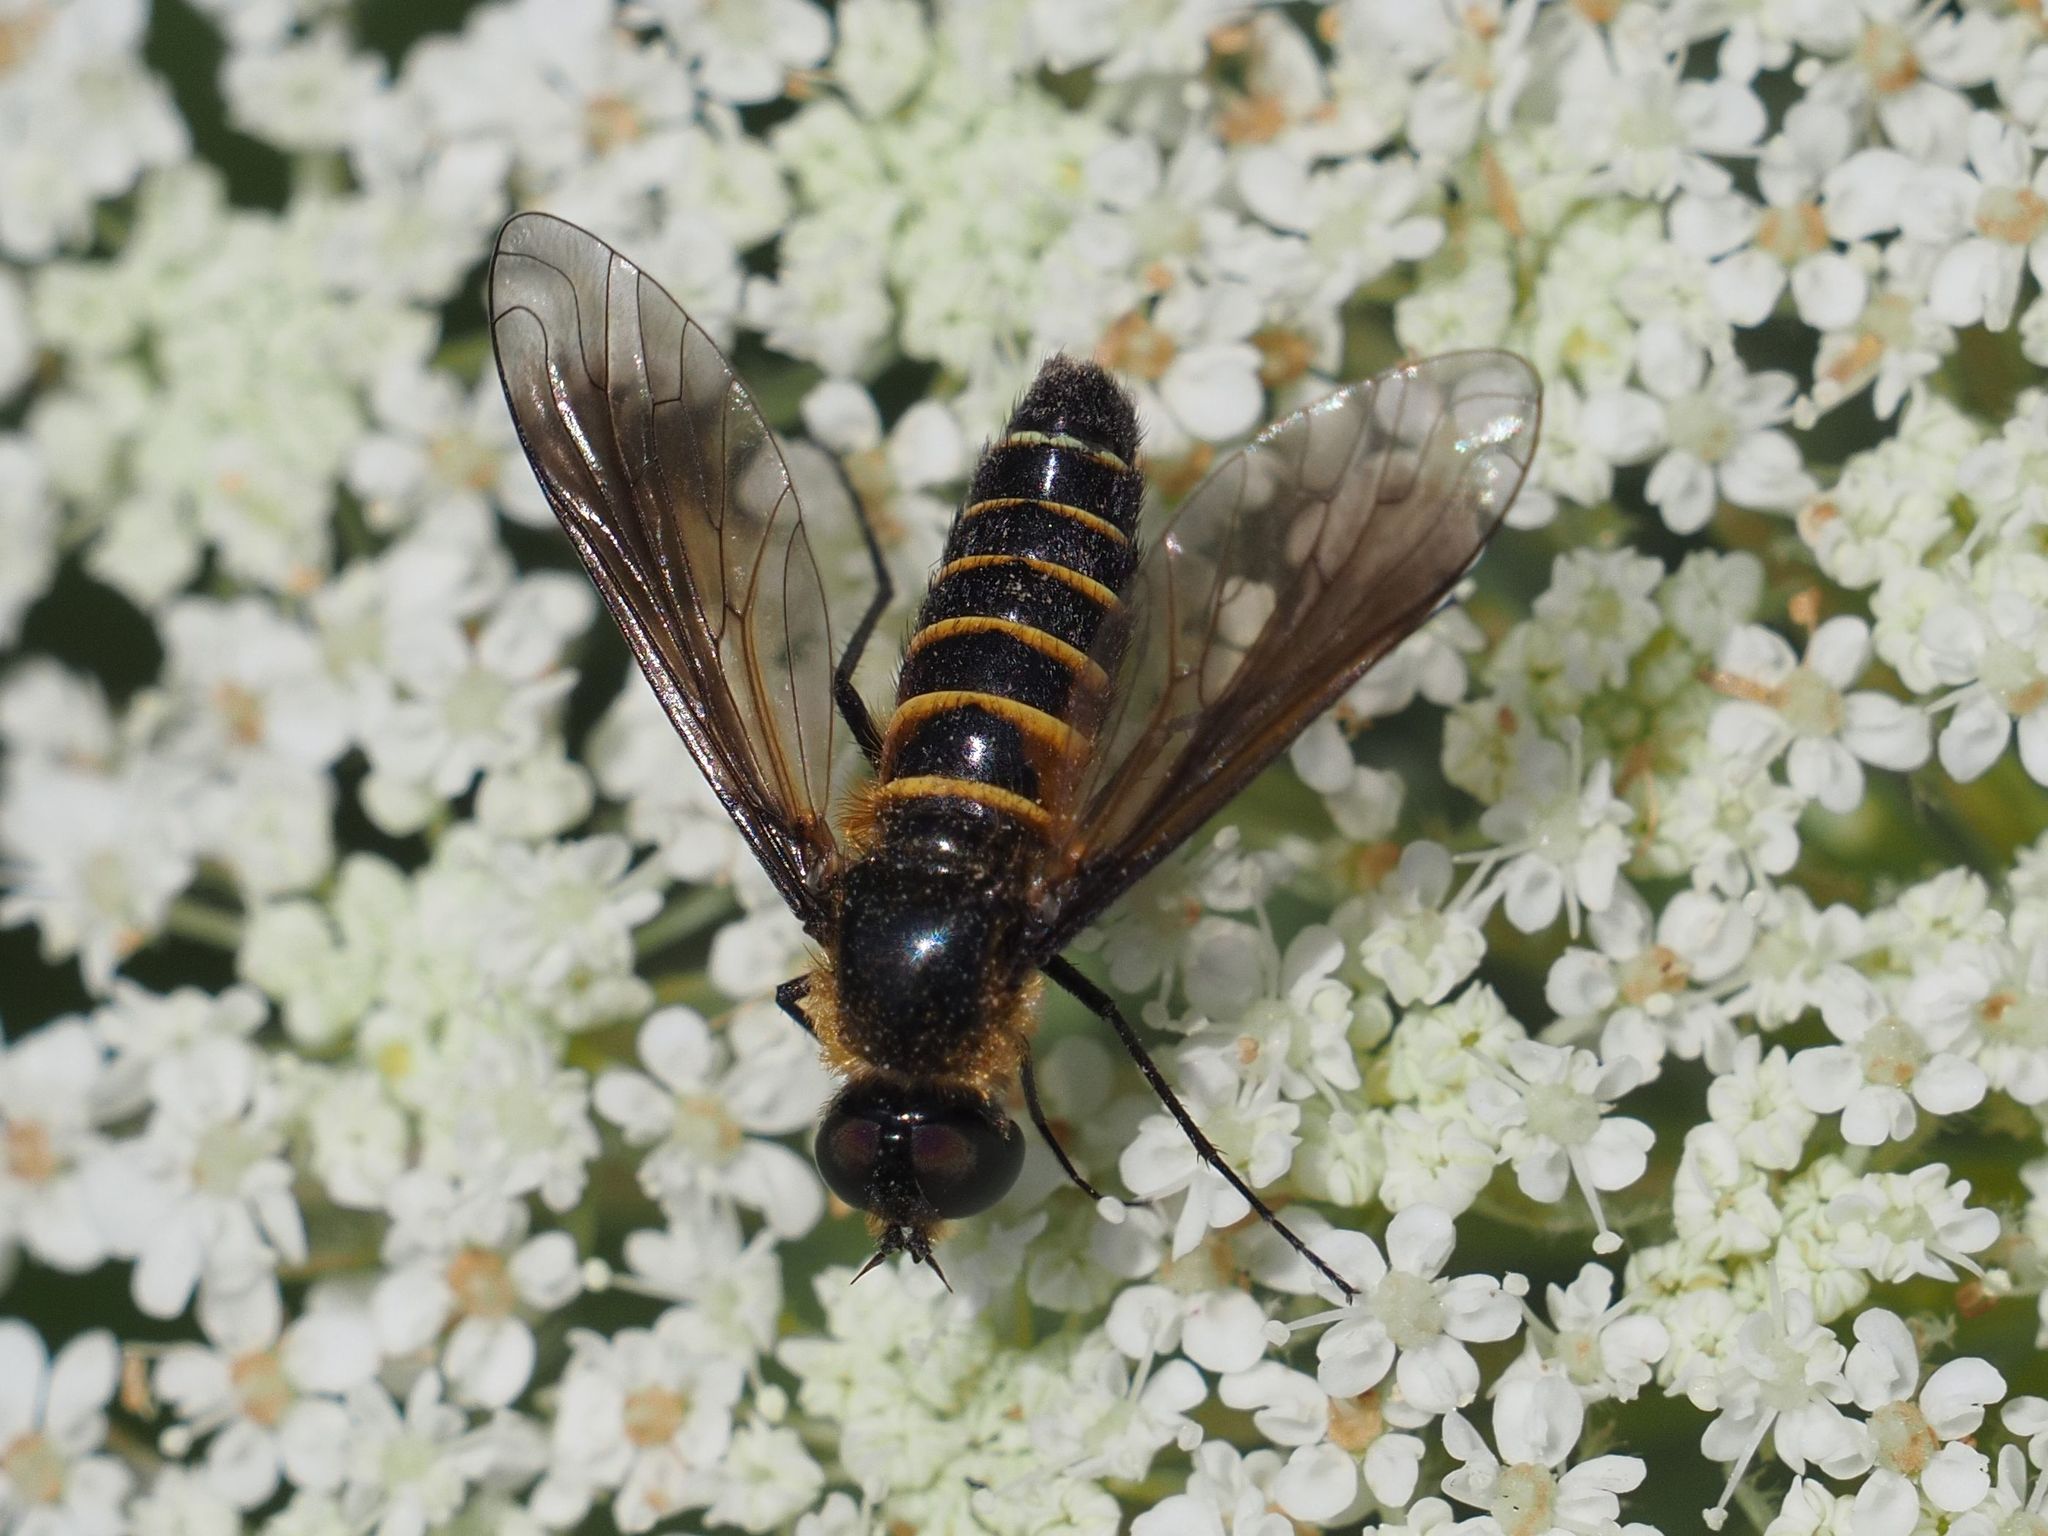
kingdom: Animalia
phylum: Arthropoda
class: Insecta
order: Diptera
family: Bombyliidae
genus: Lomatia
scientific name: Lomatia lateralis
